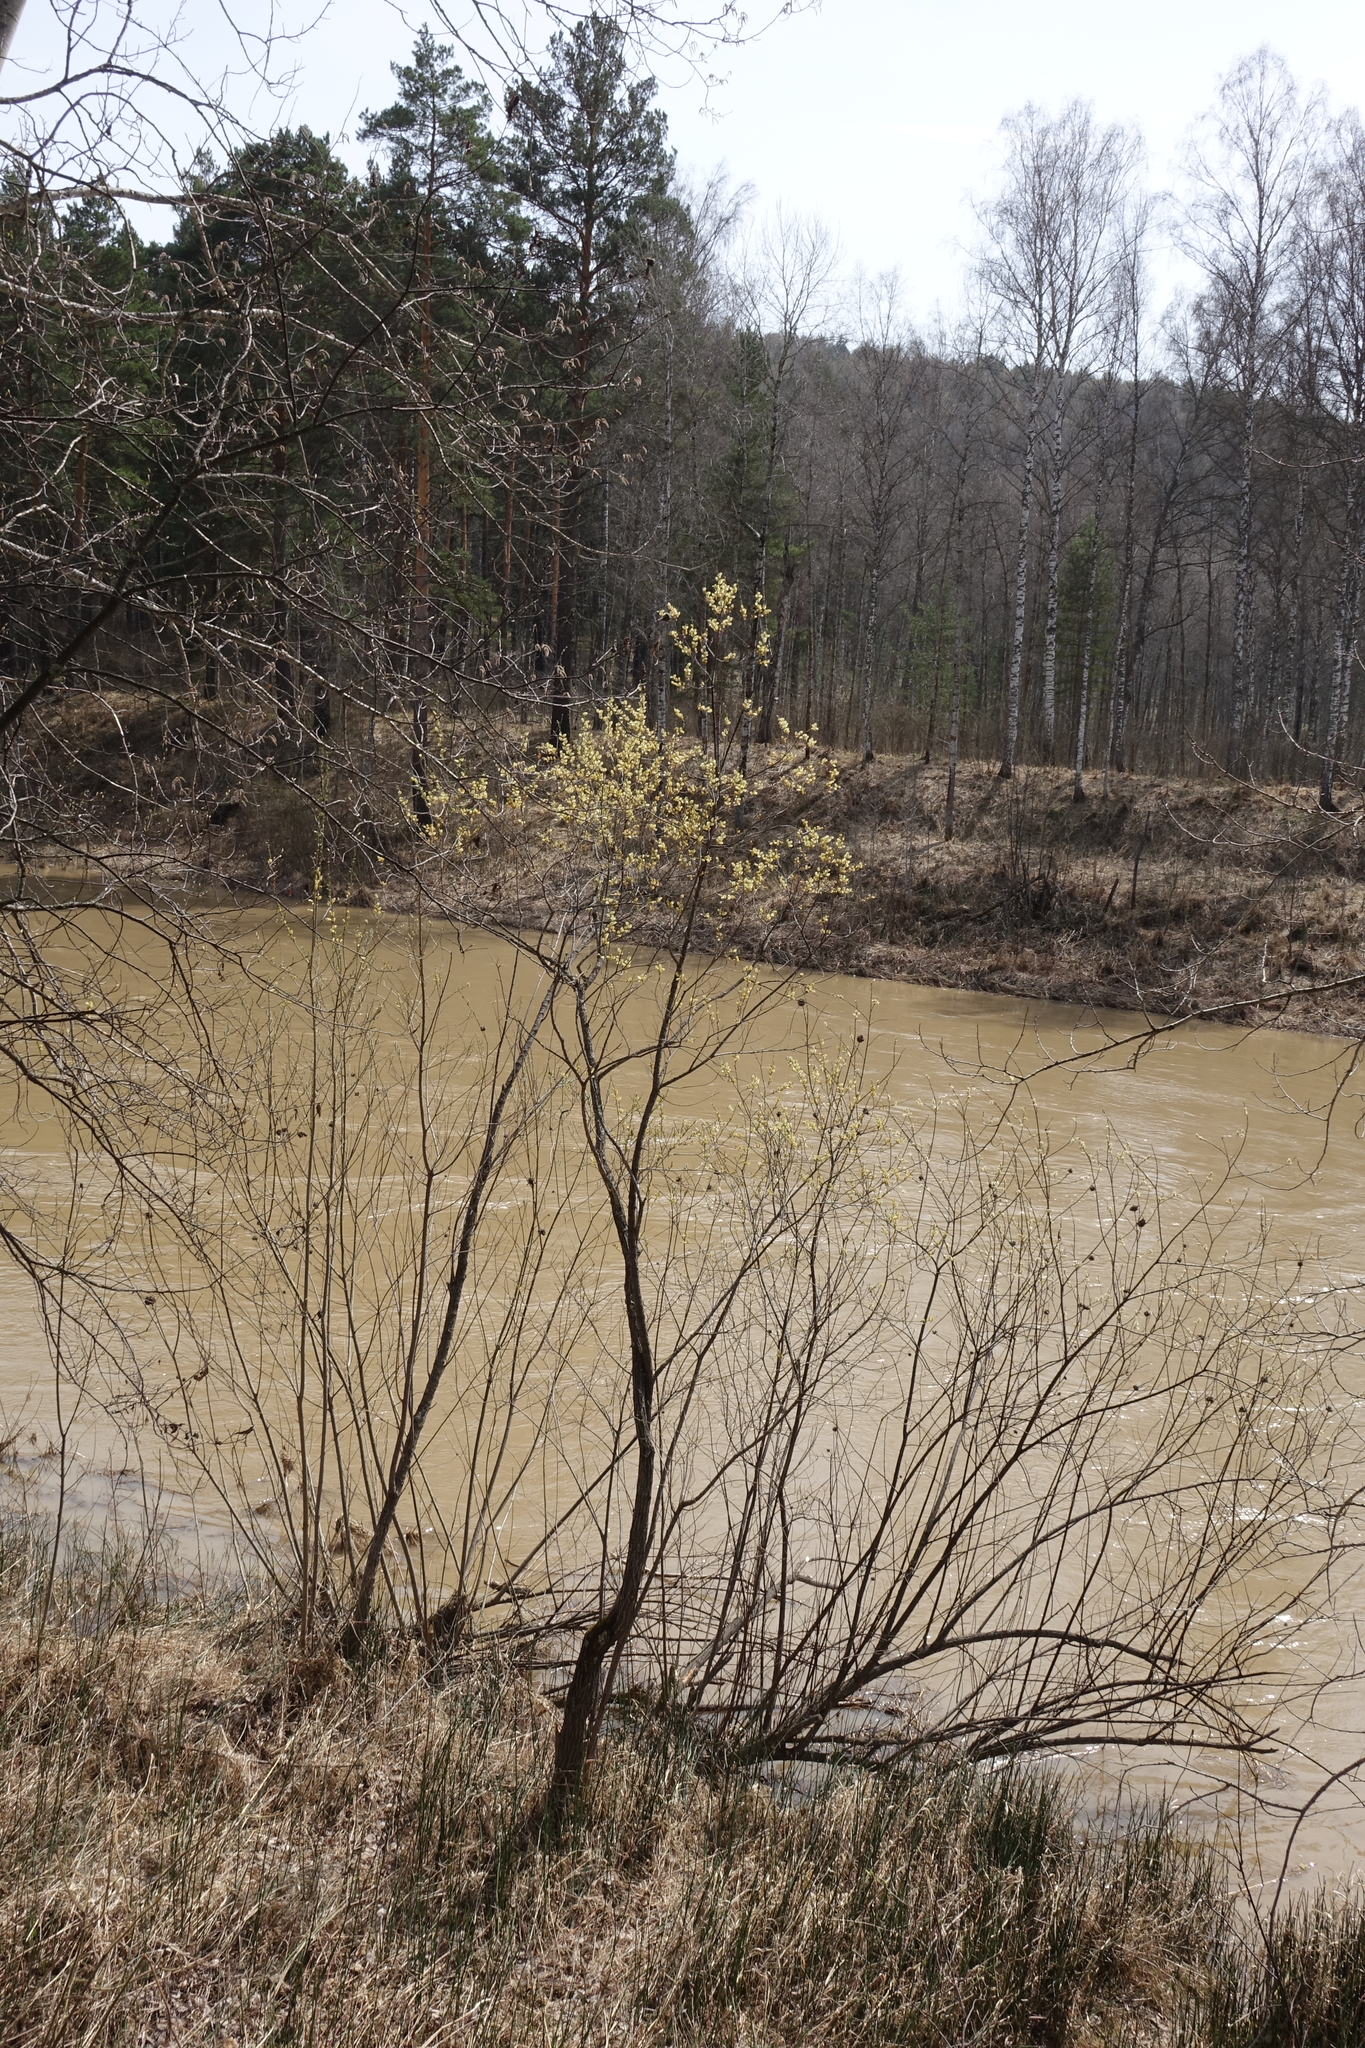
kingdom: Plantae
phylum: Tracheophyta
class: Magnoliopsida
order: Malpighiales
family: Salicaceae
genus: Salix
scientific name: Salix caprea
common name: Goat willow
